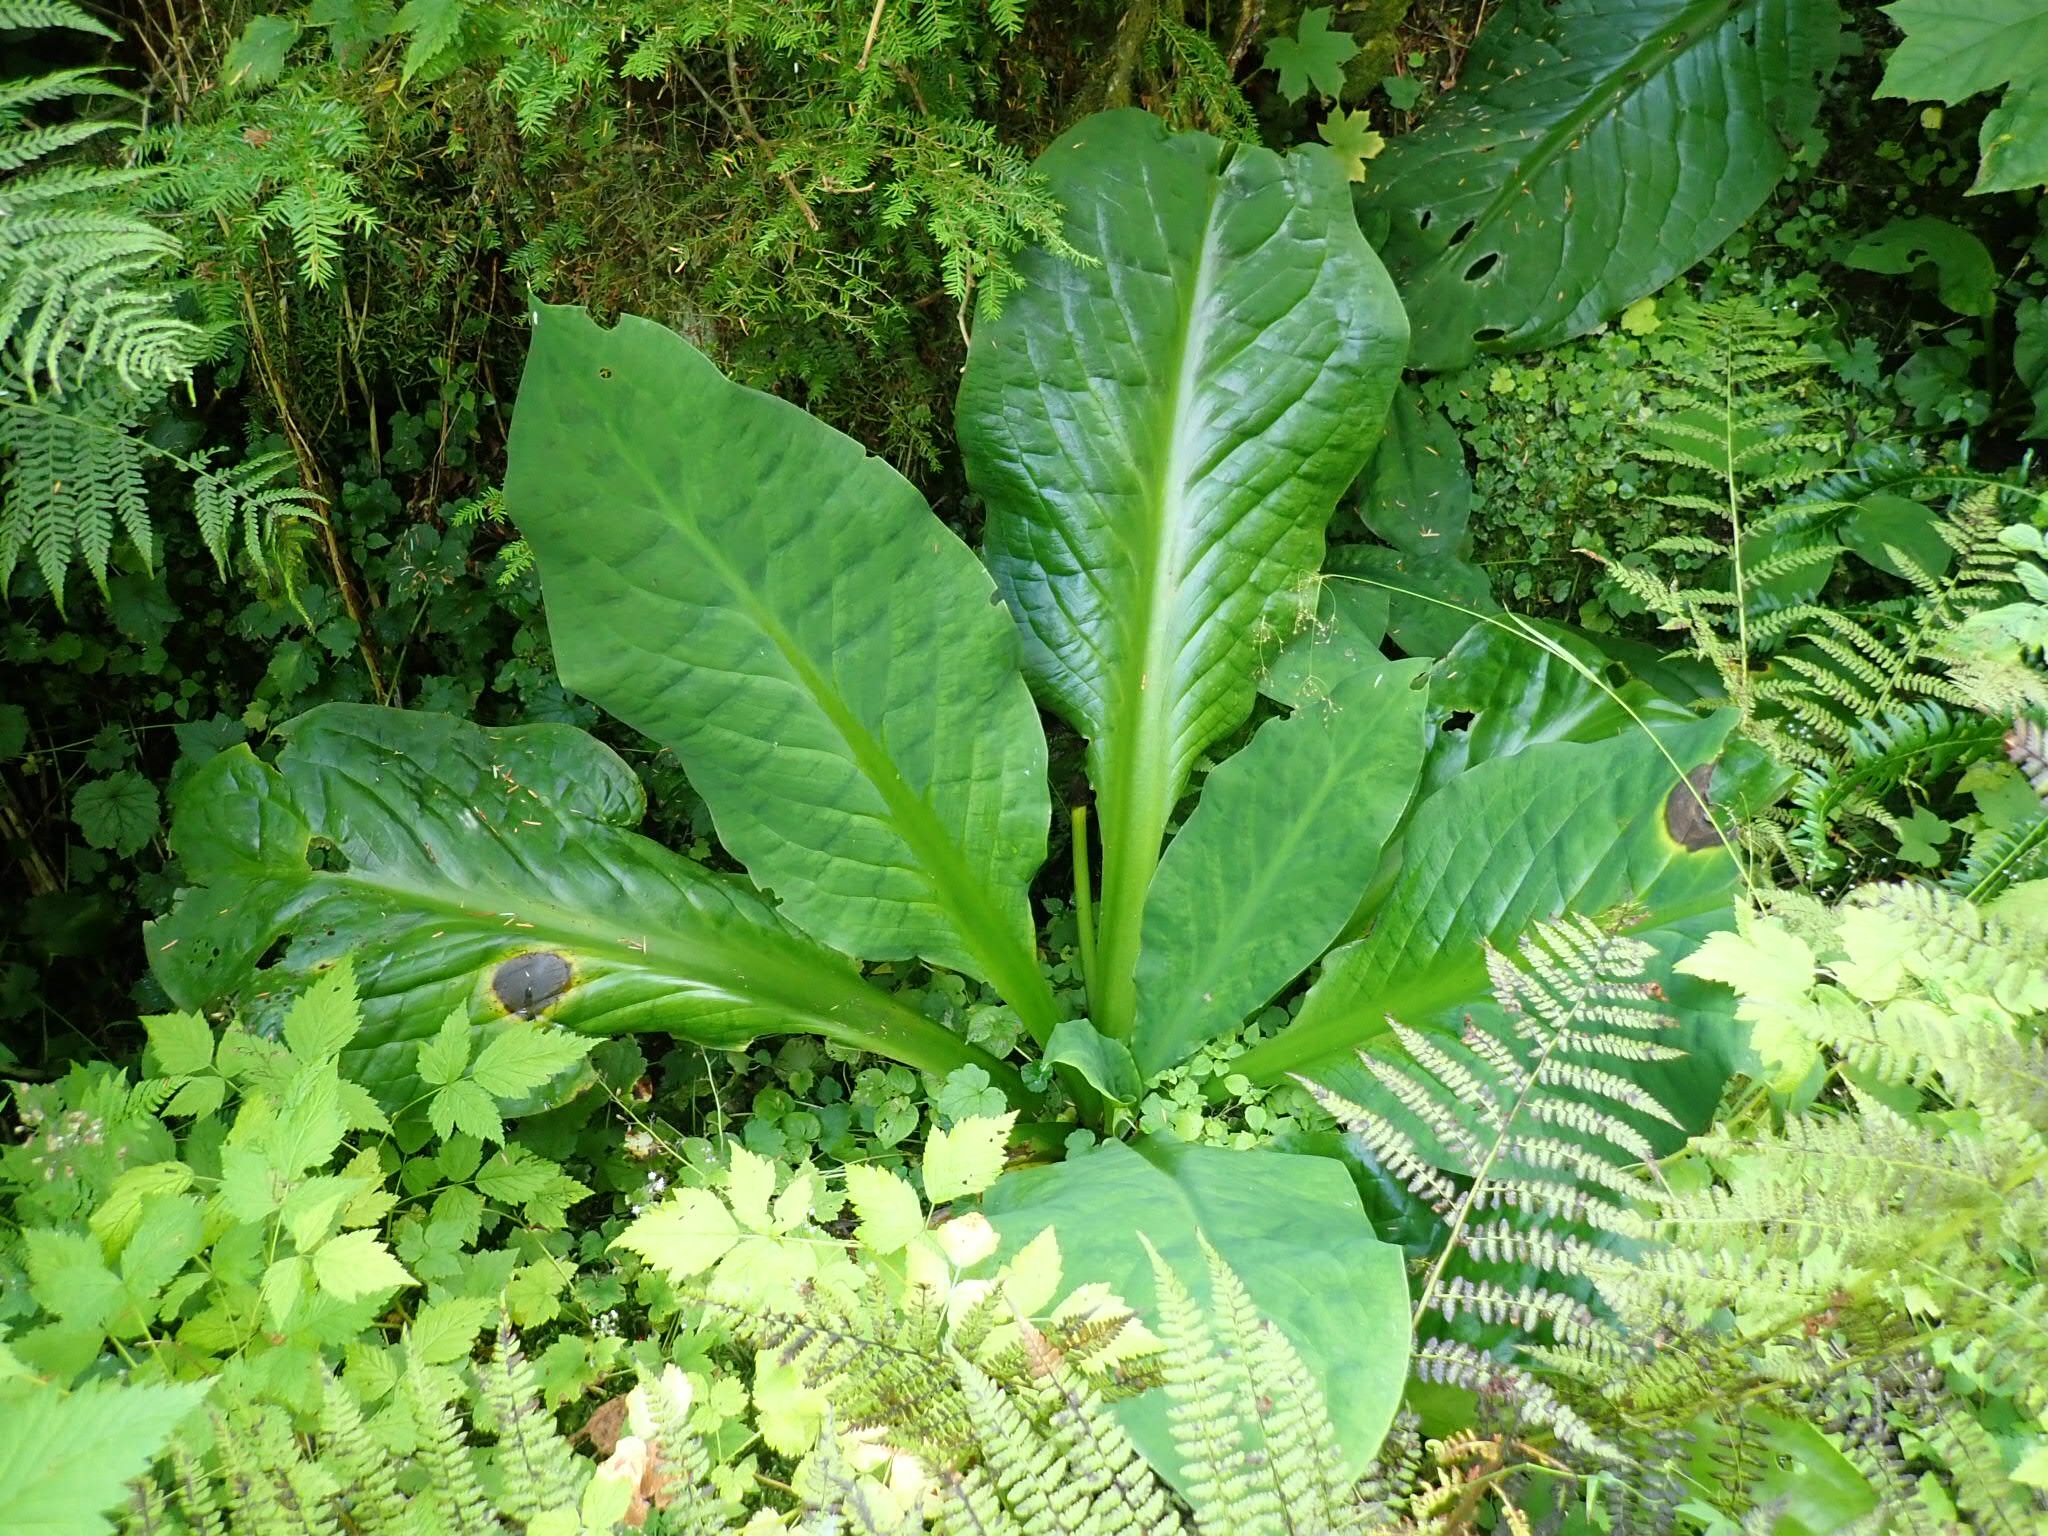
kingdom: Plantae
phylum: Tracheophyta
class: Liliopsida
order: Alismatales
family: Araceae
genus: Lysichiton
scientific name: Lysichiton americanus
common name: American skunk cabbage
